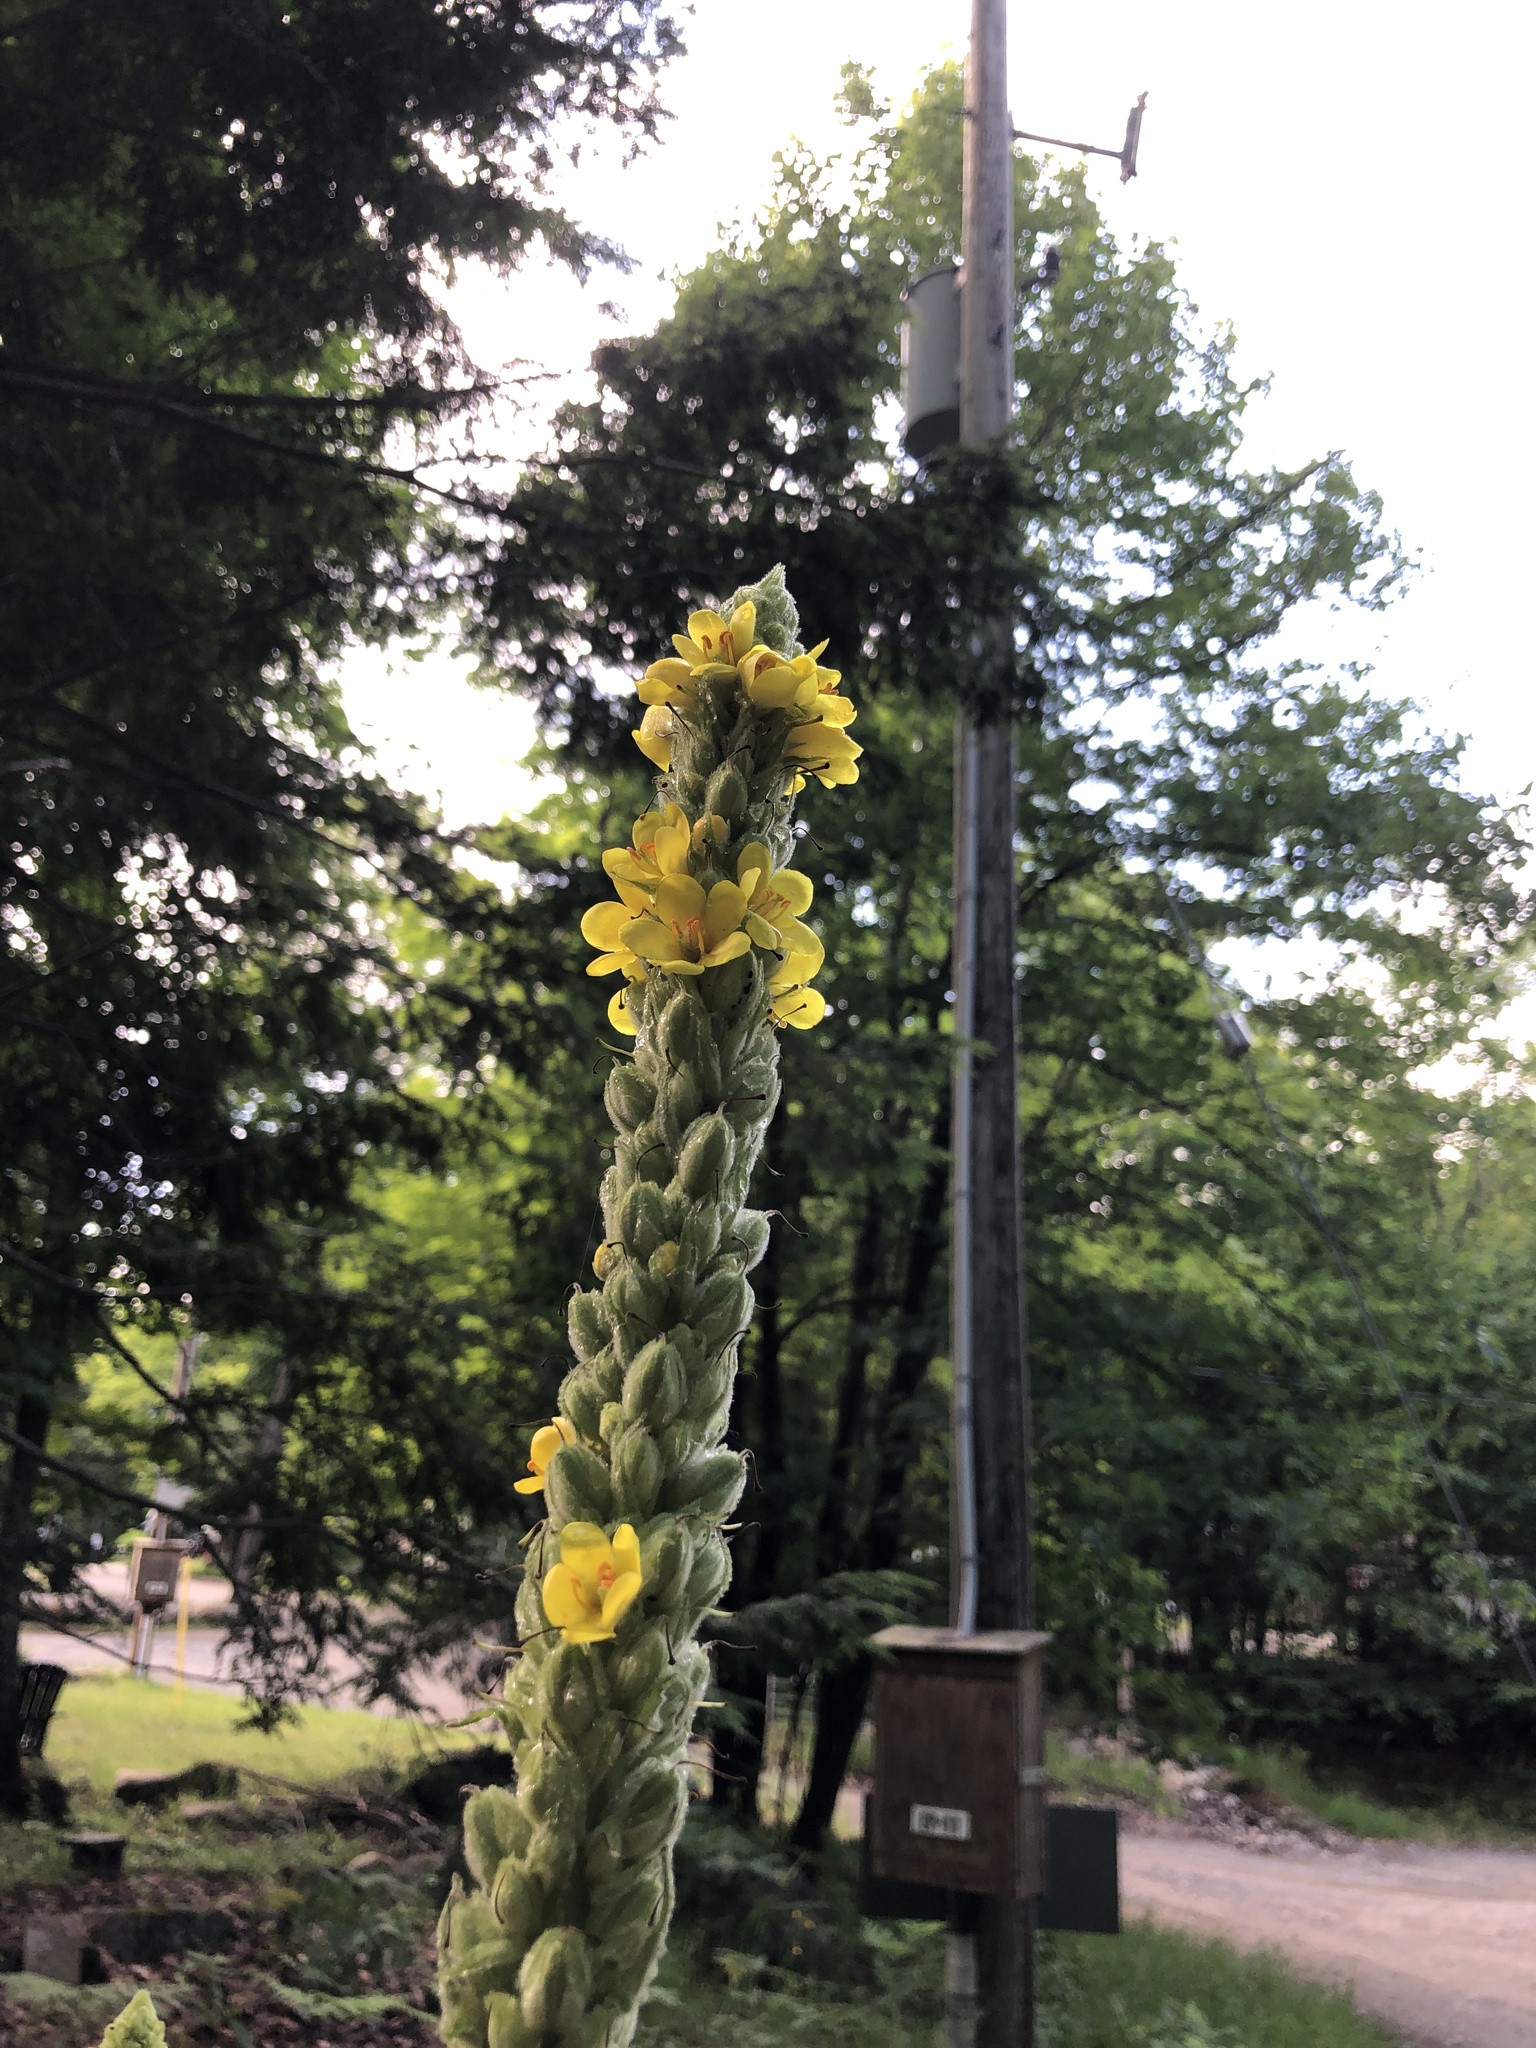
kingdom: Plantae
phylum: Tracheophyta
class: Magnoliopsida
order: Lamiales
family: Scrophulariaceae
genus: Verbascum
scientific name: Verbascum thapsus
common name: Common mullein
